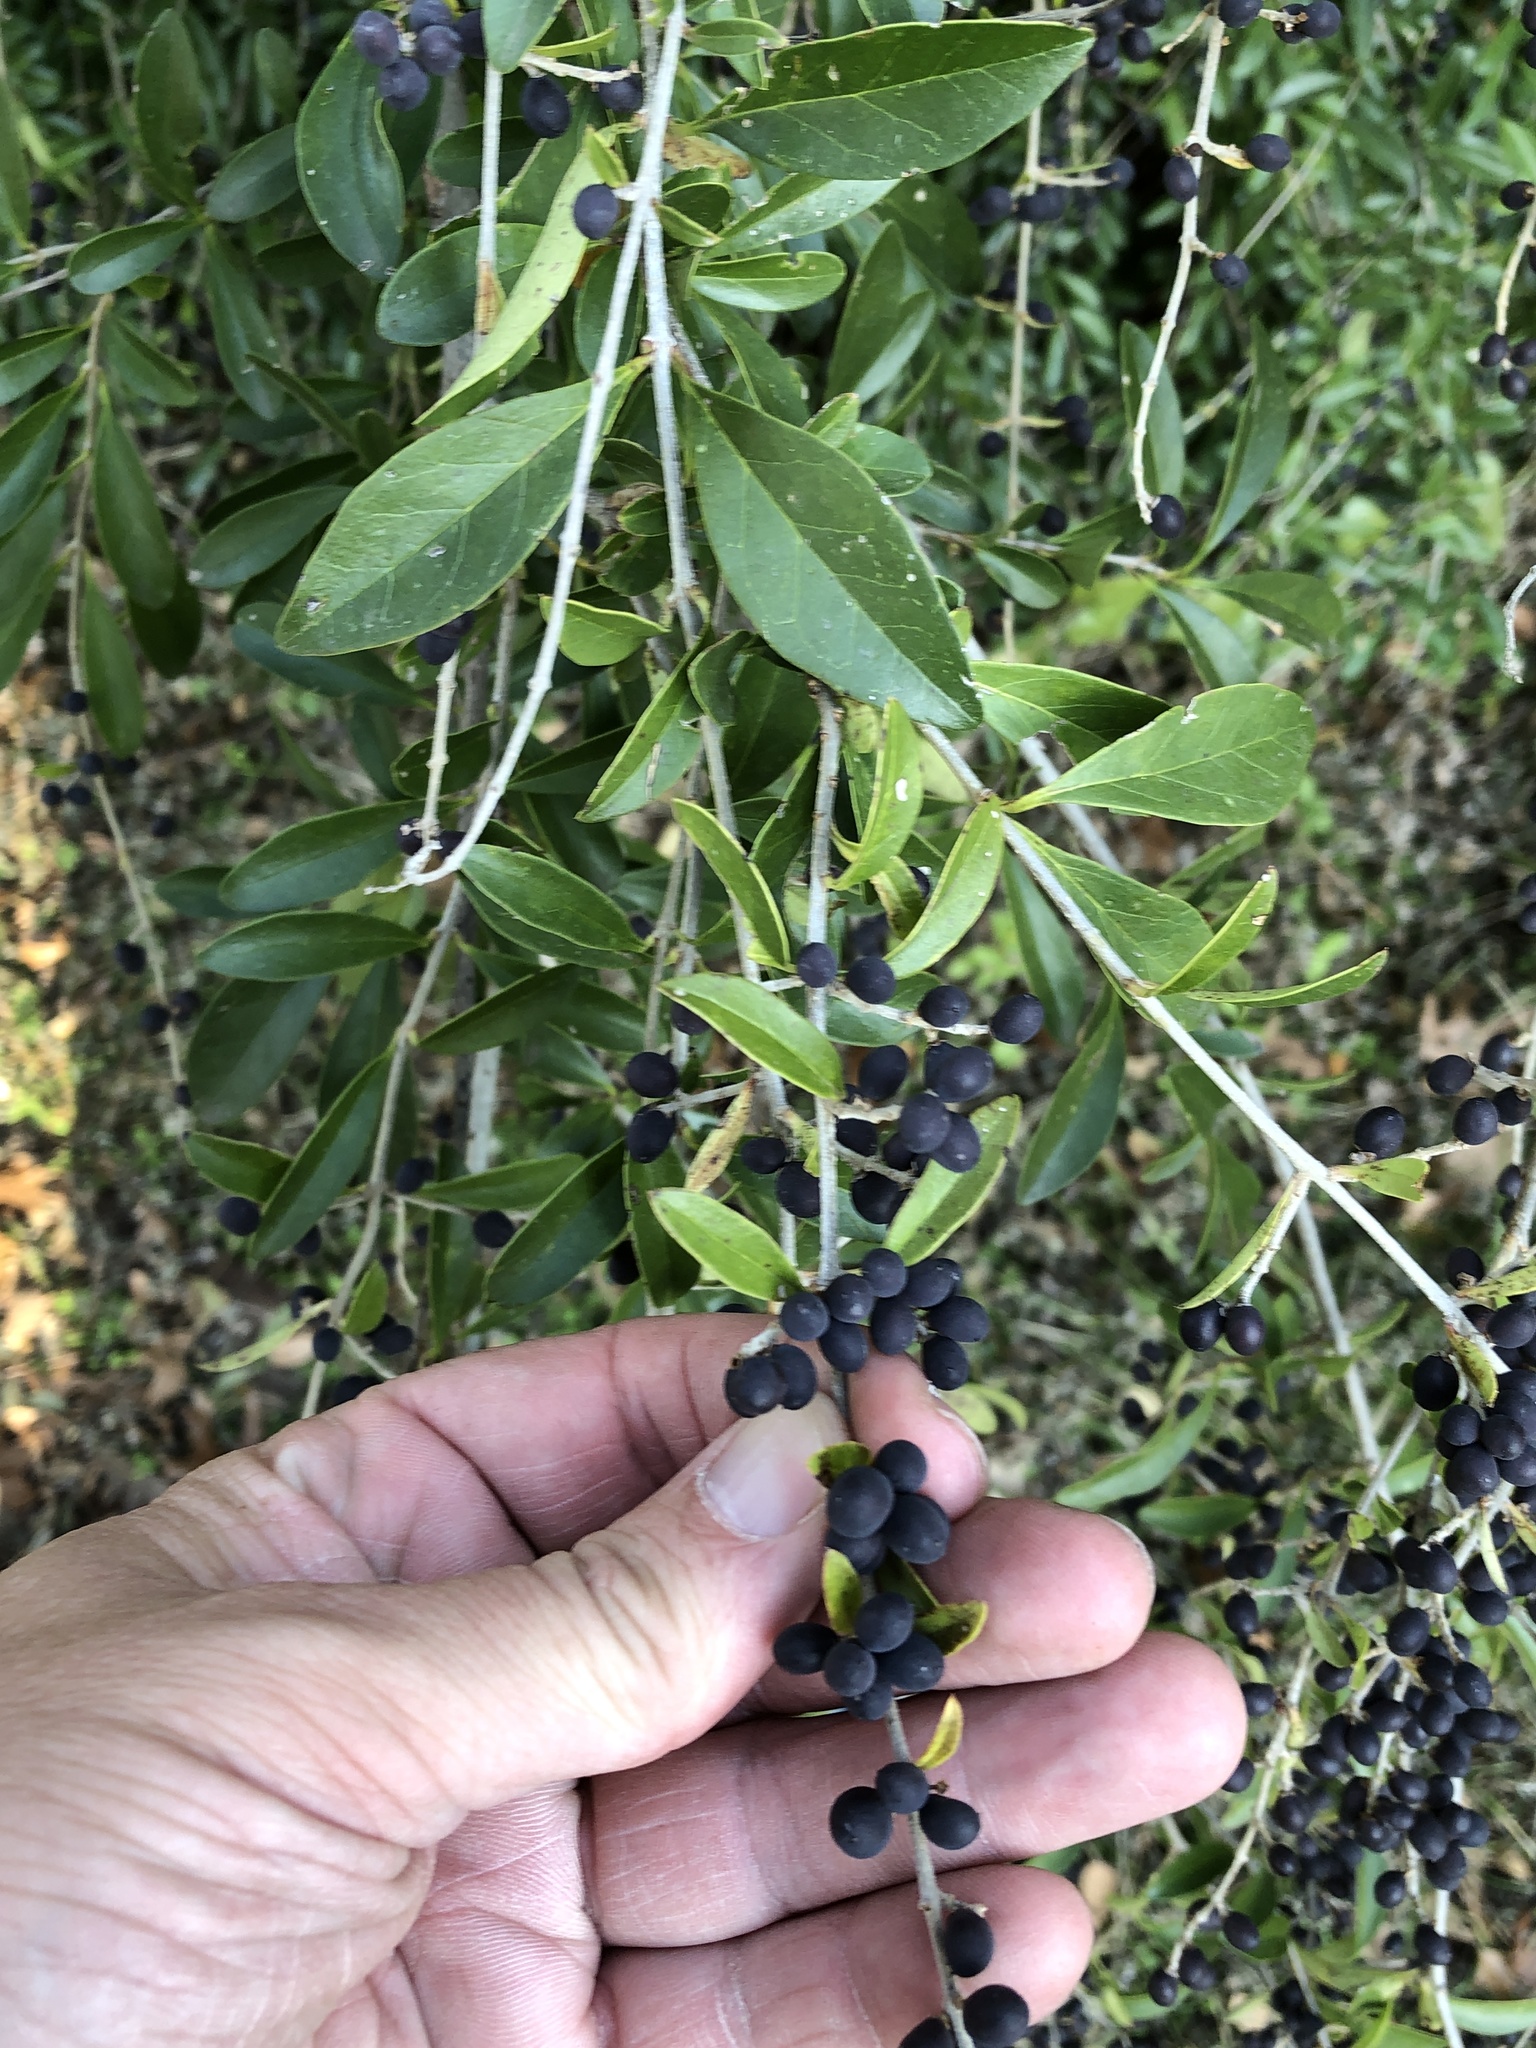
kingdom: Plantae
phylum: Tracheophyta
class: Magnoliopsida
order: Lamiales
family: Oleaceae
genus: Ligustrum
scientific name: Ligustrum quihoui
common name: Waxyleaf privet
